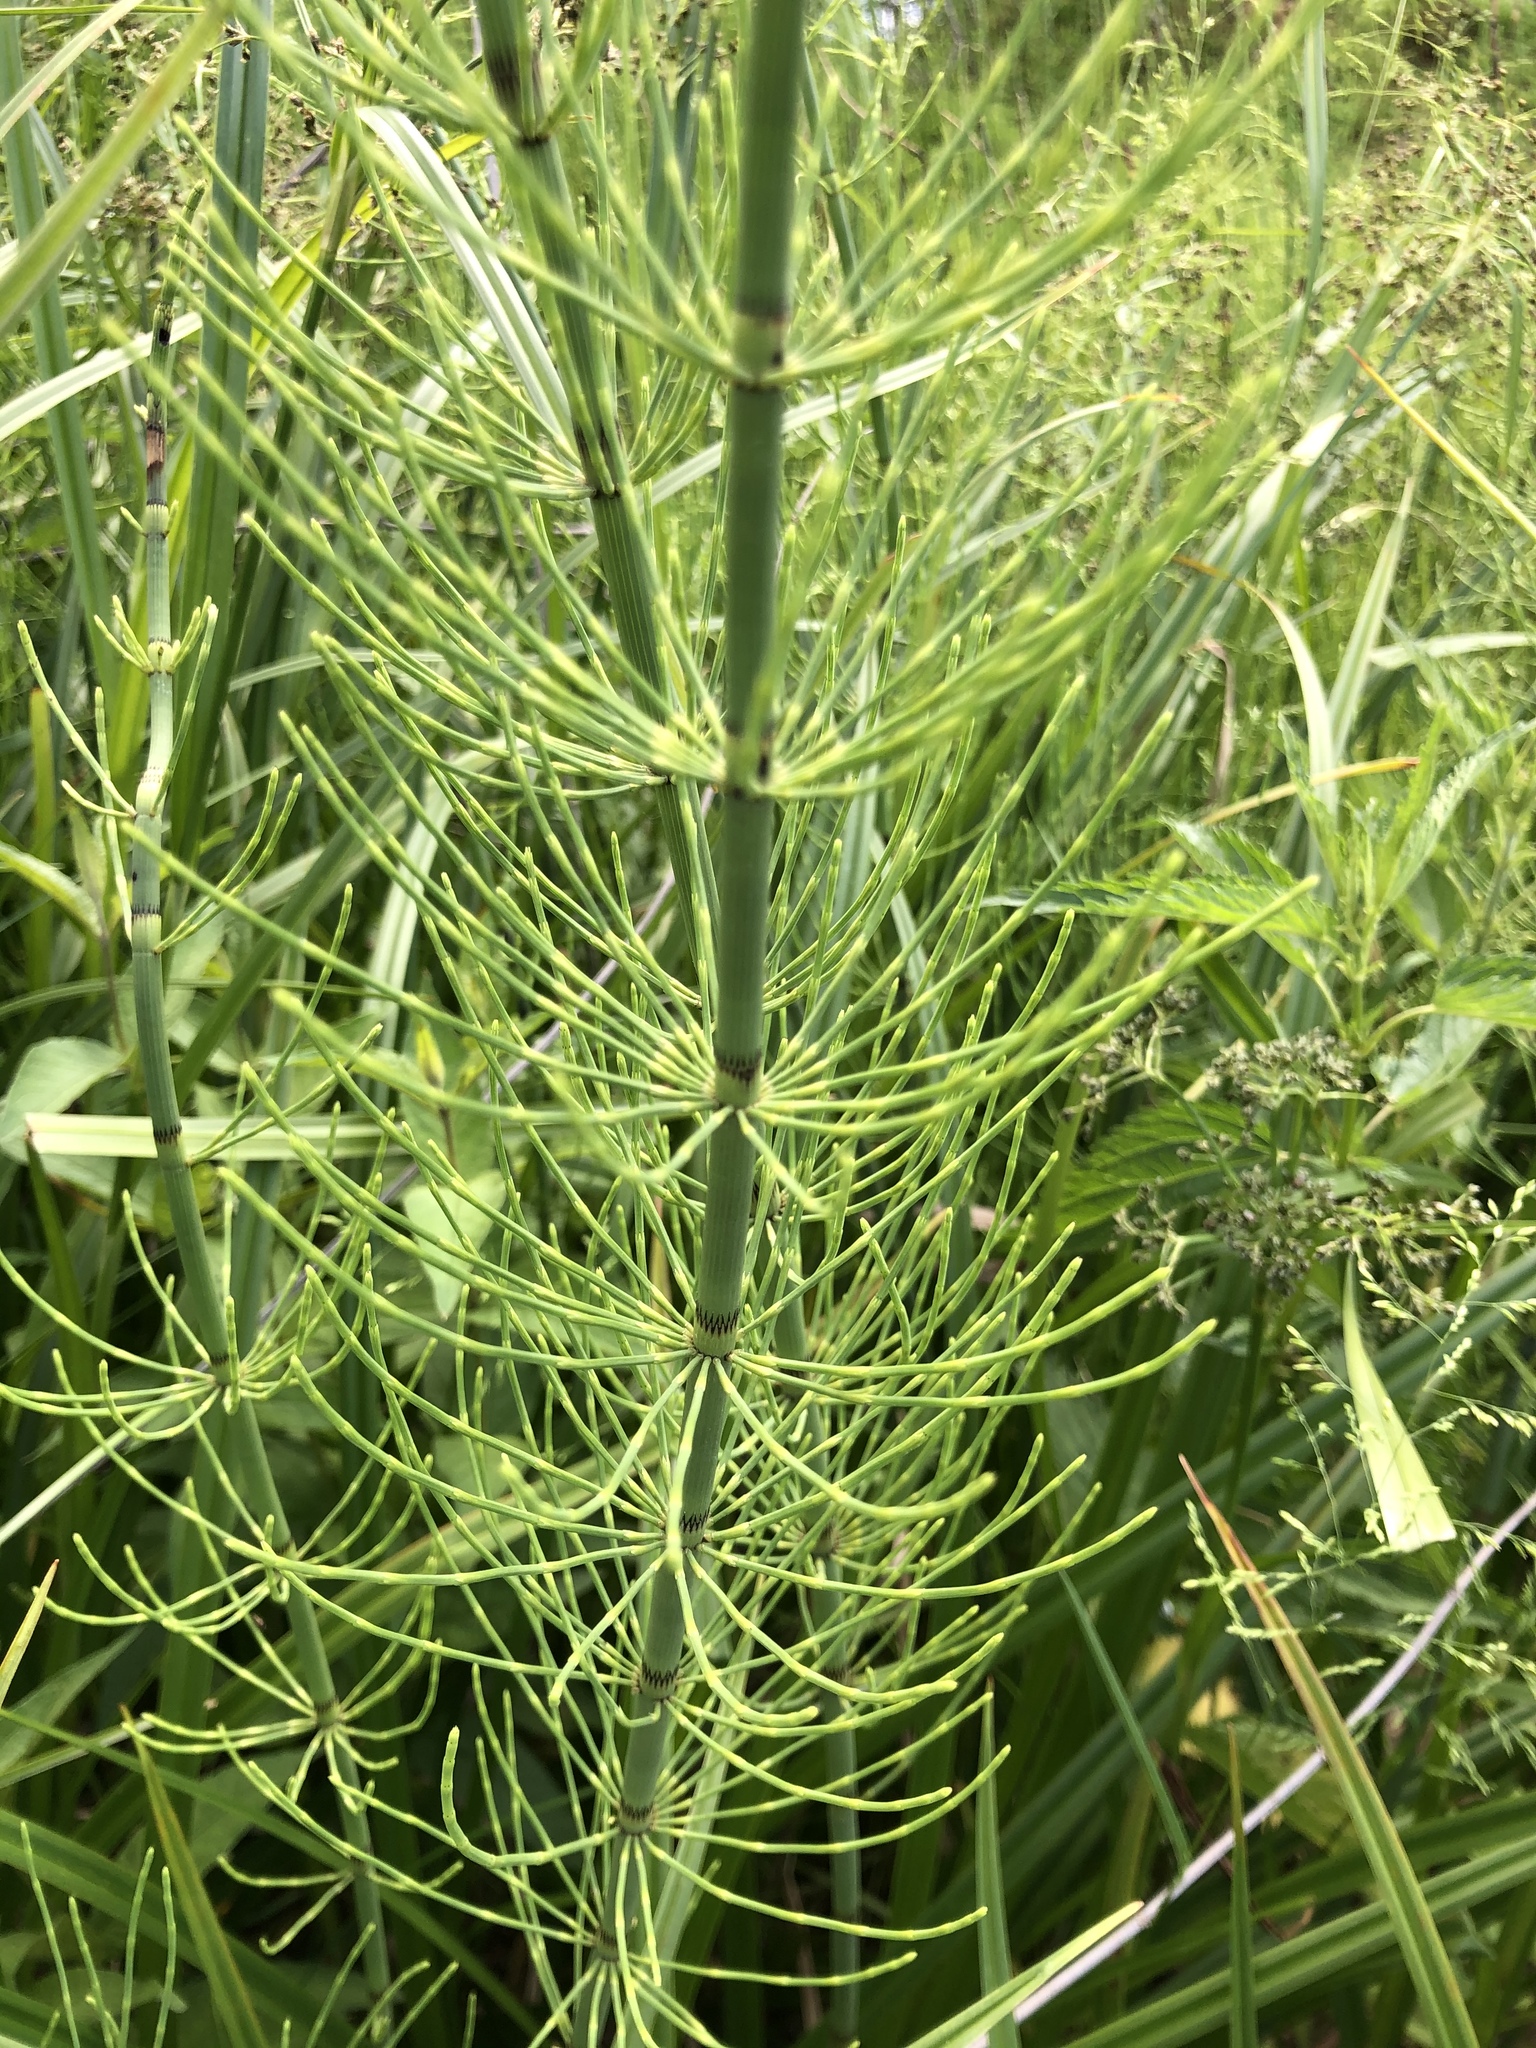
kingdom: Plantae
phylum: Tracheophyta
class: Polypodiopsida
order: Equisetales
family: Equisetaceae
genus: Equisetum
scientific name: Equisetum fluviatile
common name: Water horsetail
